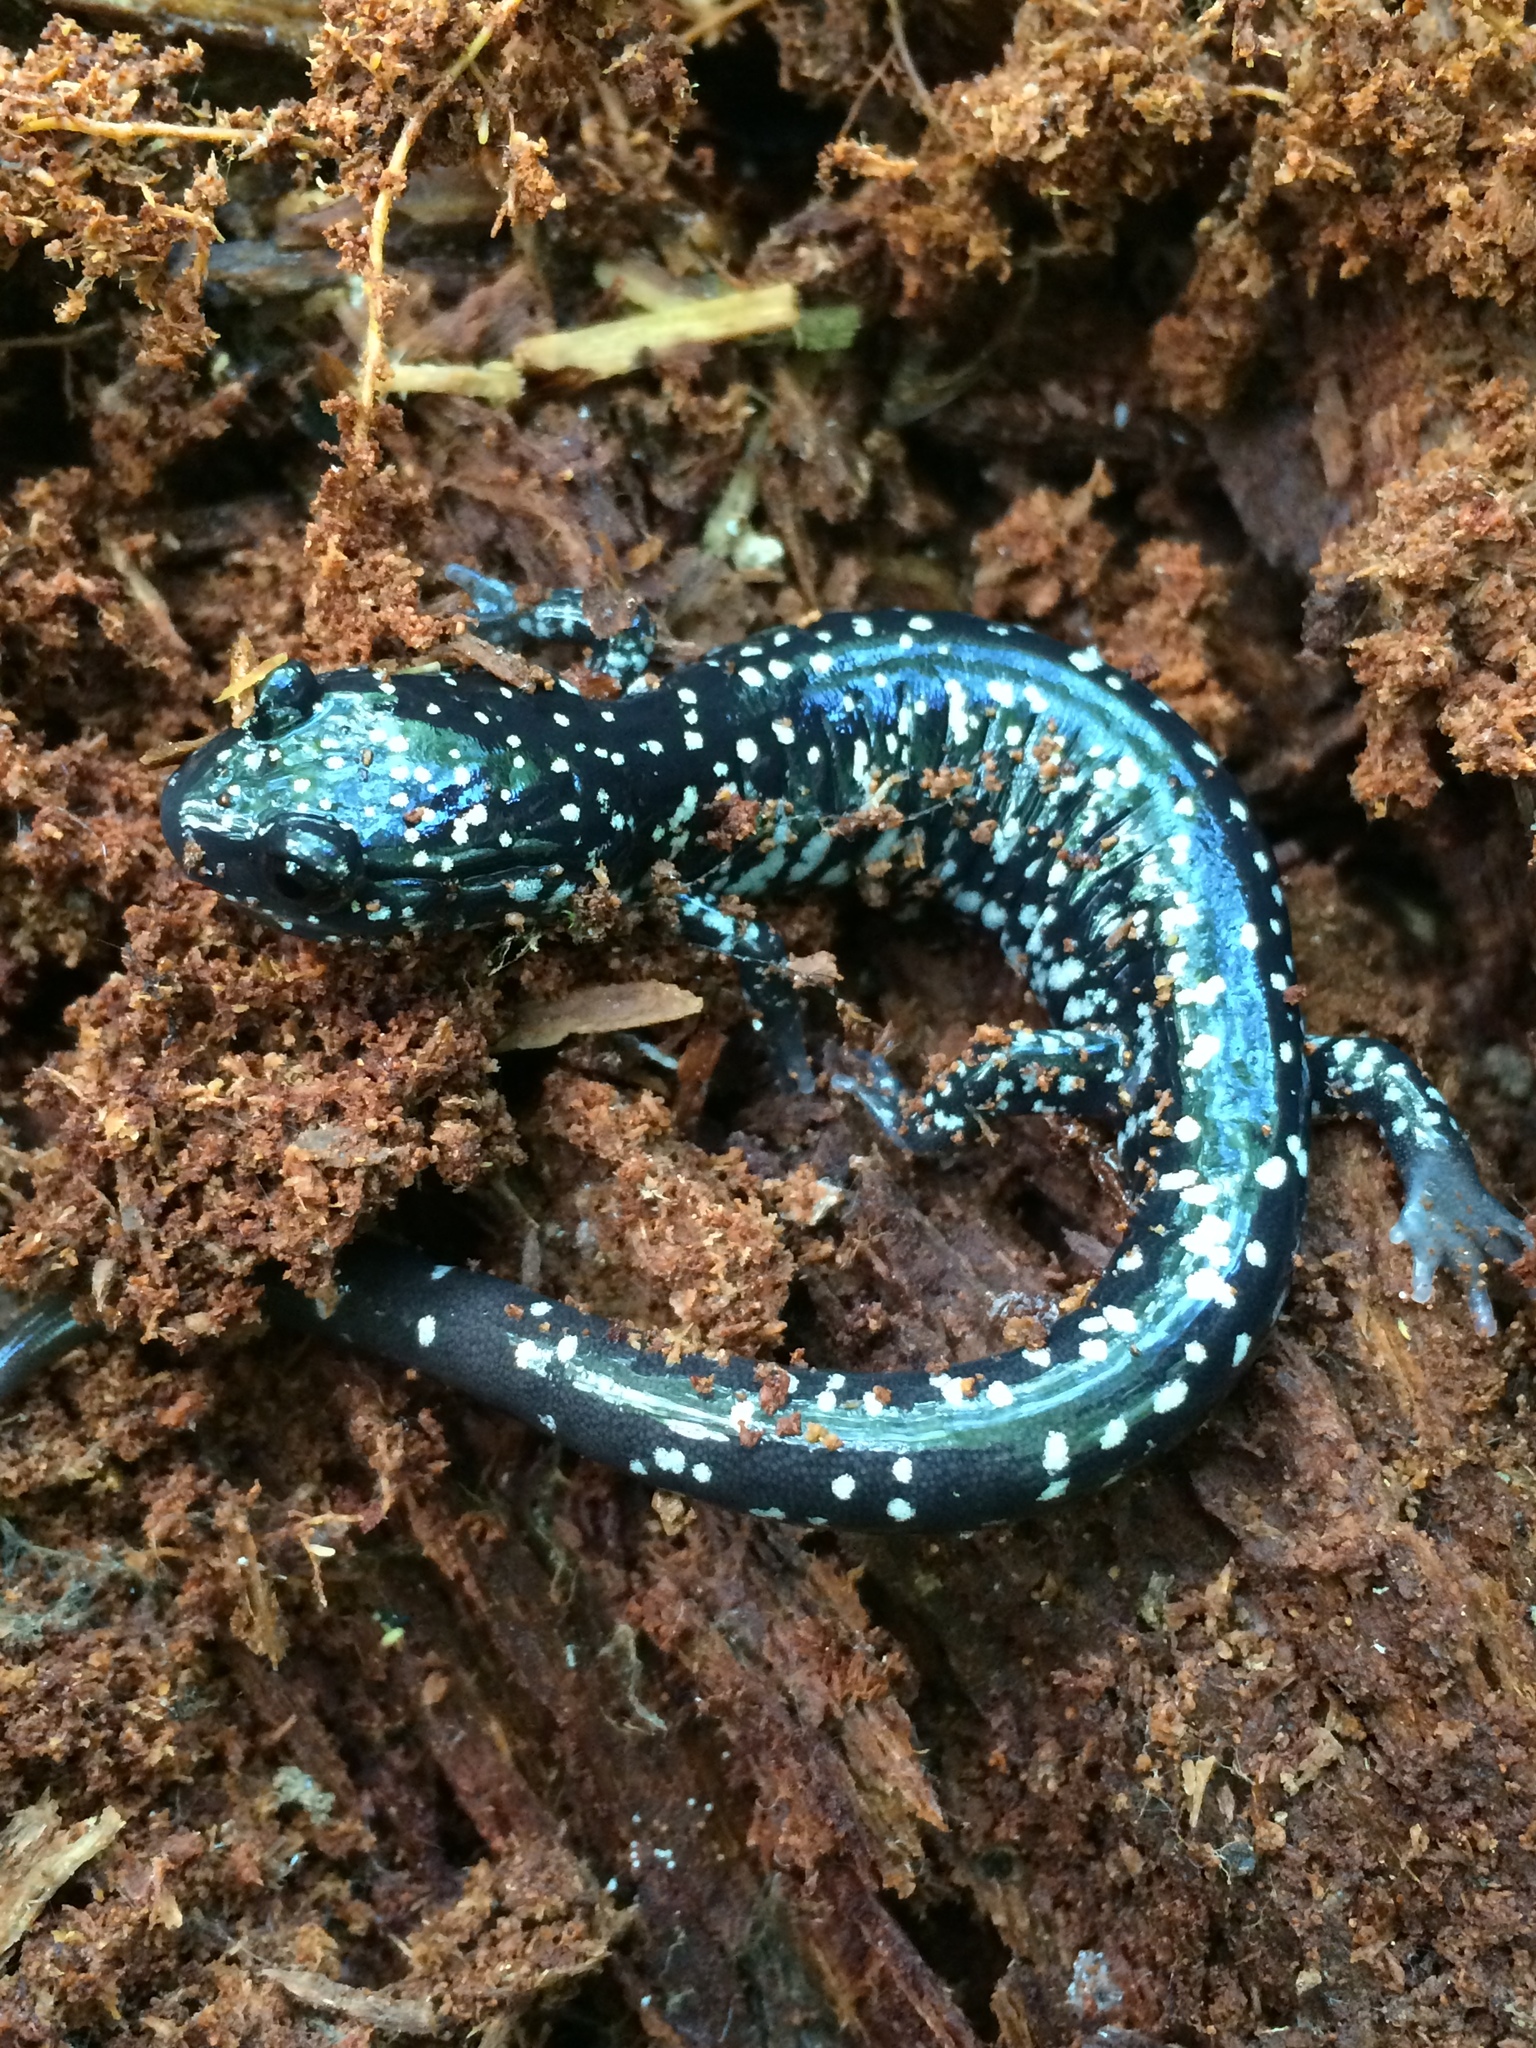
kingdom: Animalia
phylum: Chordata
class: Amphibia
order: Caudata
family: Plethodontidae
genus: Plethodon
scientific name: Plethodon albagula
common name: Western slimy salamander
